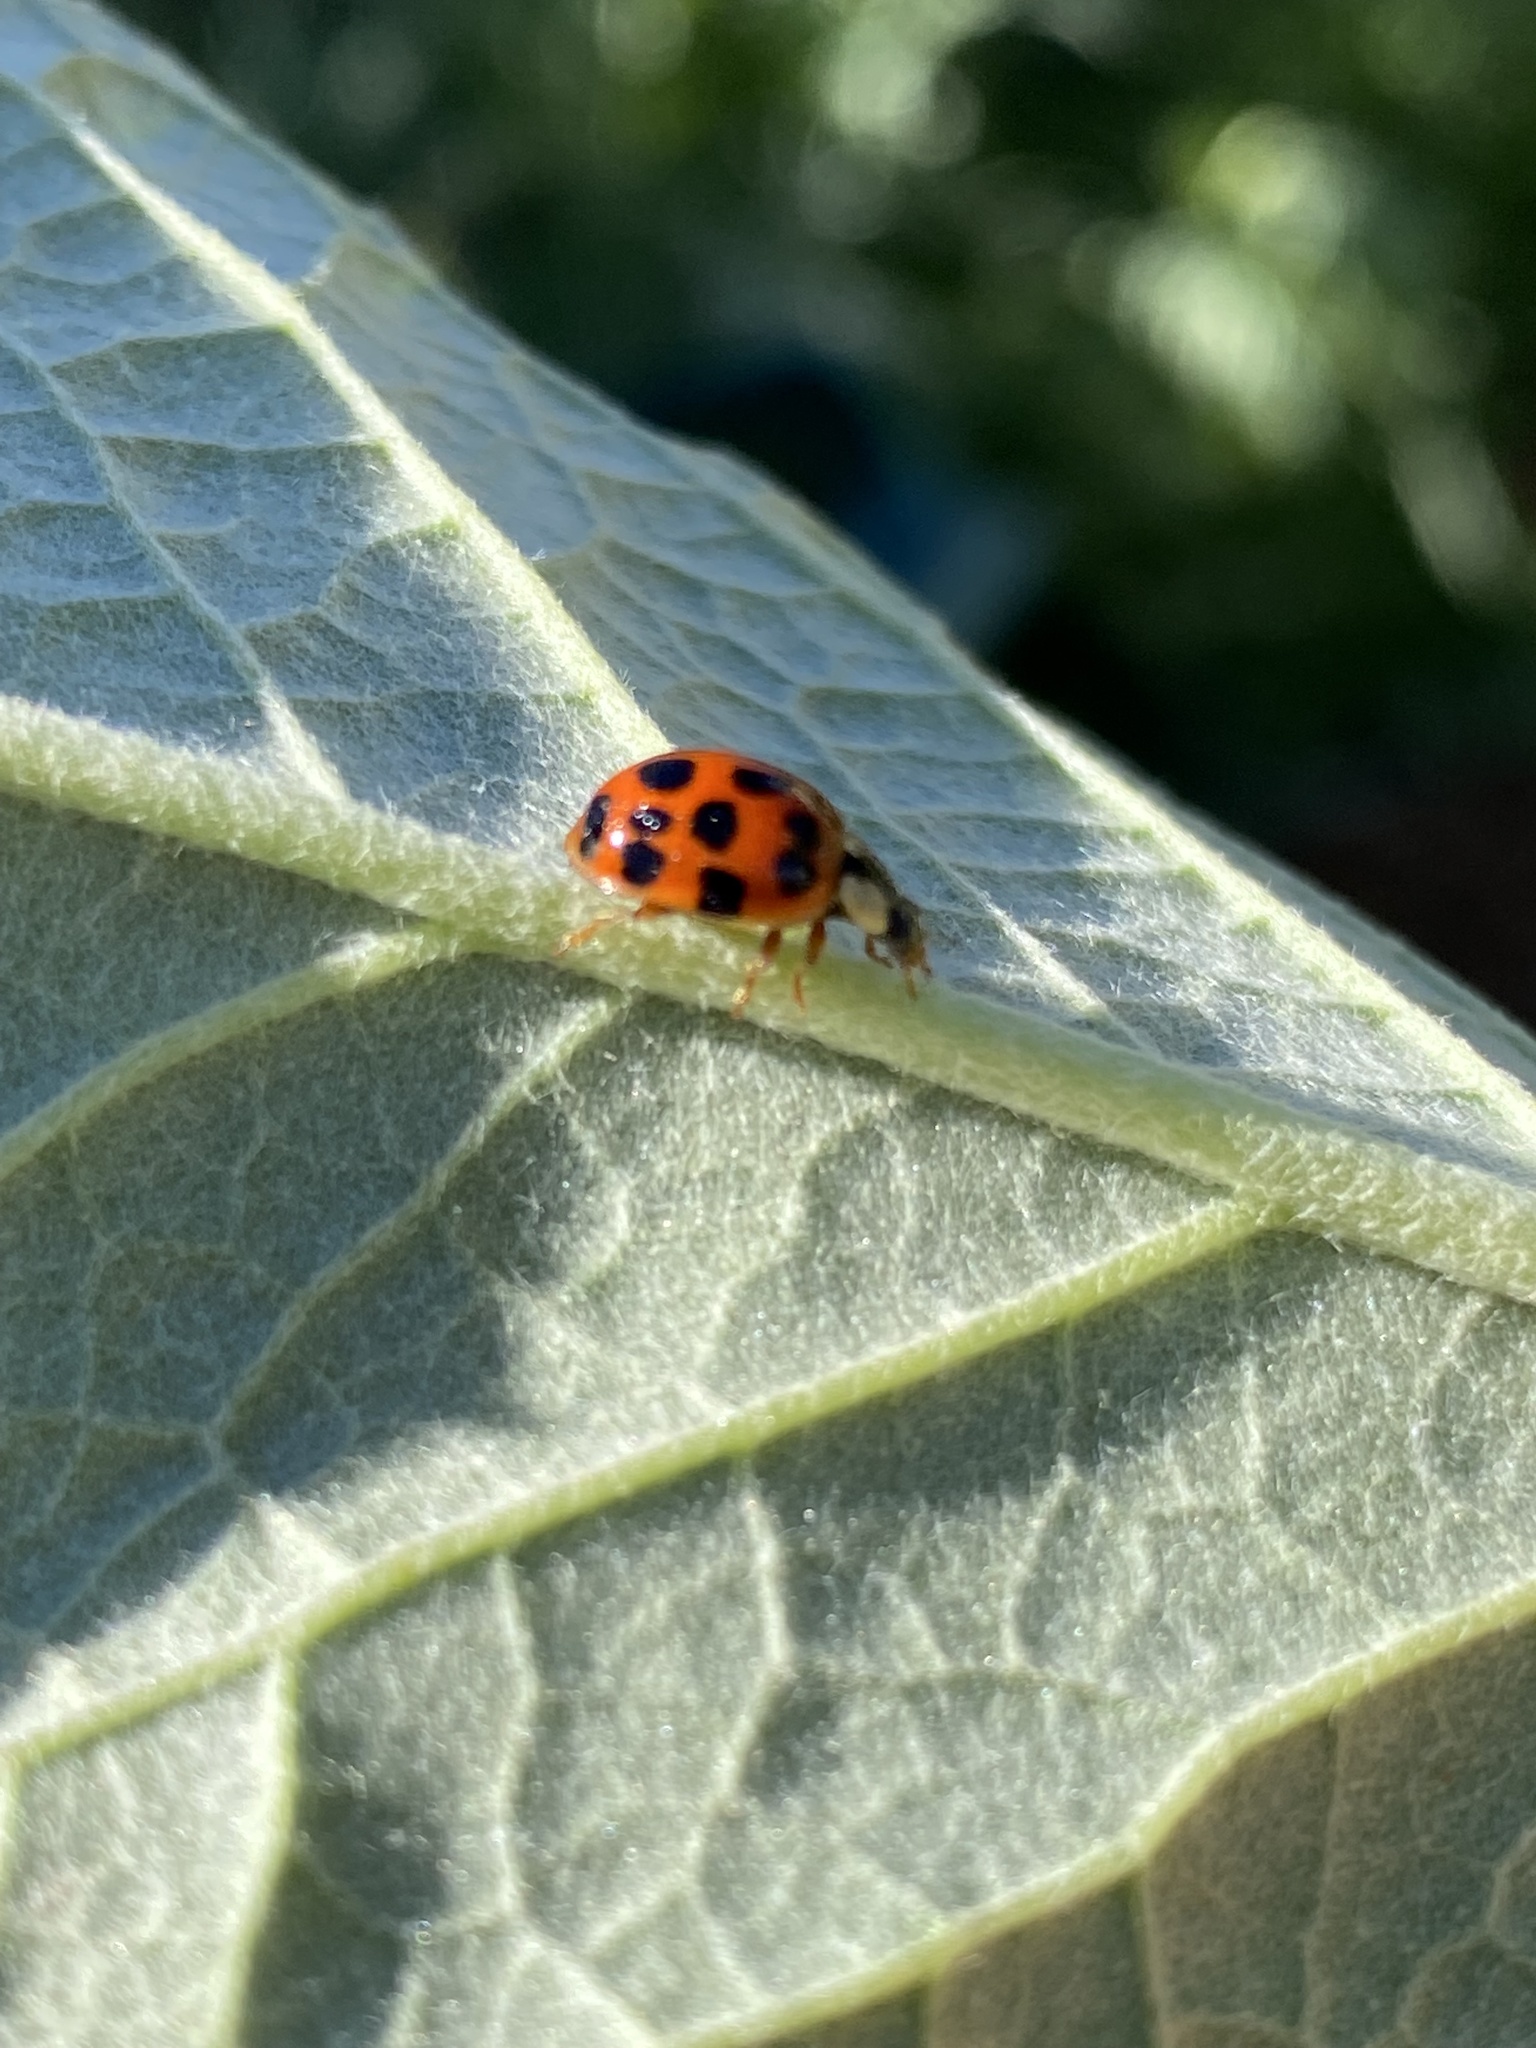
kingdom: Animalia
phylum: Arthropoda
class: Insecta
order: Coleoptera
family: Coccinellidae
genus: Harmonia
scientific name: Harmonia axyridis
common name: Harlequin ladybird
